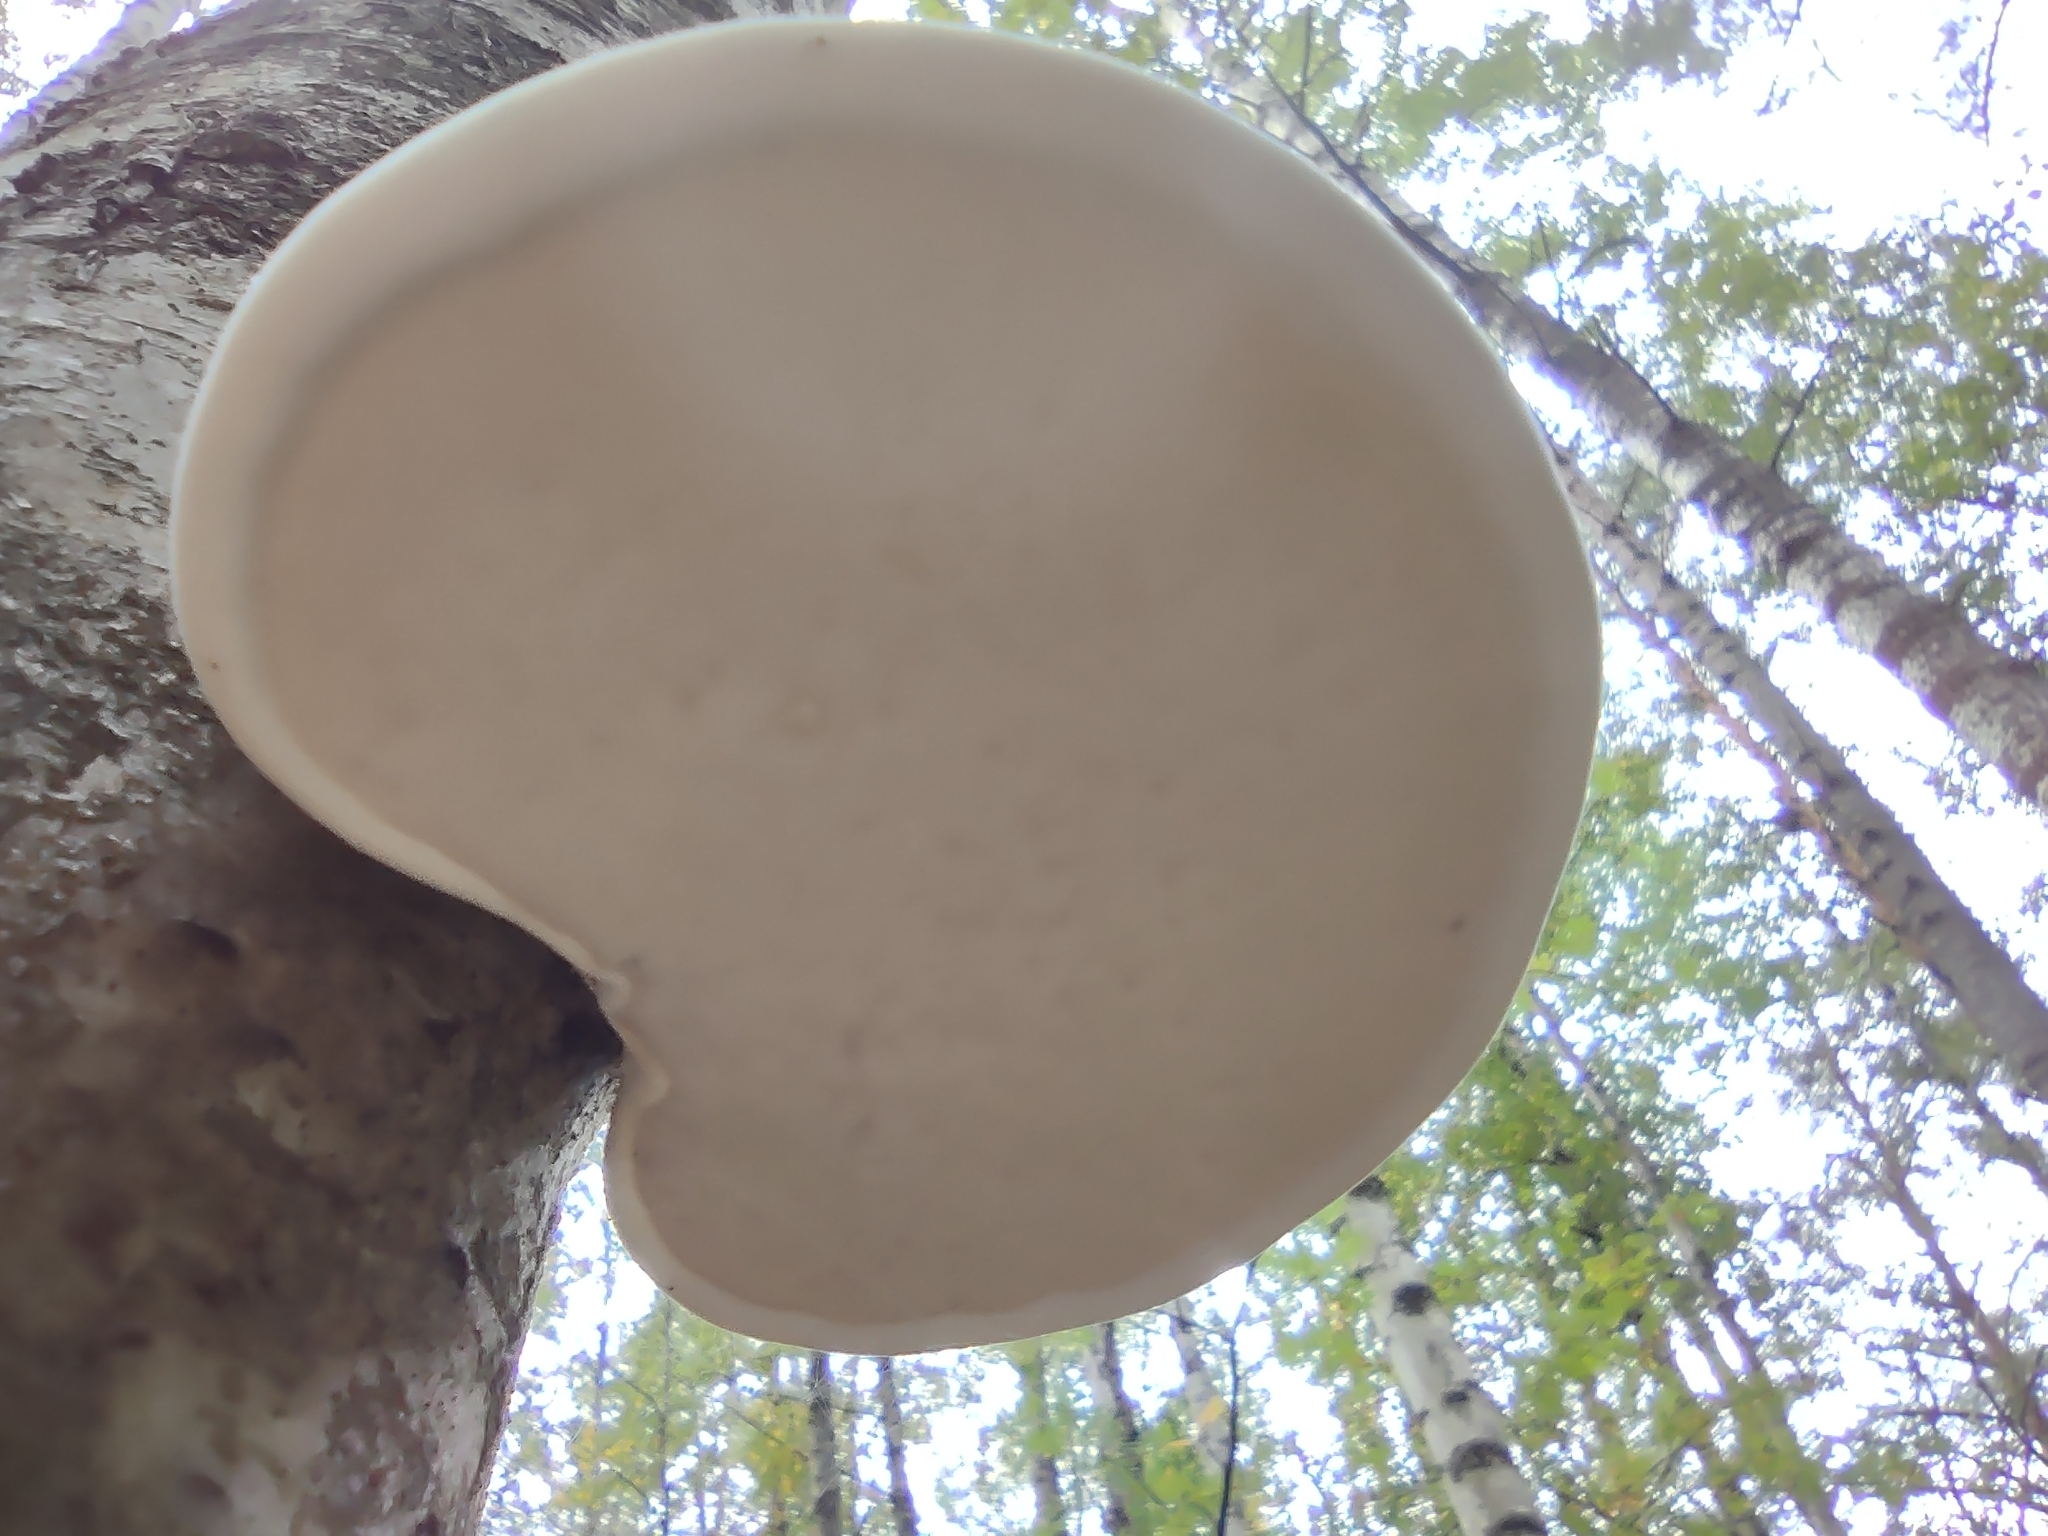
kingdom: Fungi
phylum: Basidiomycota
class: Agaricomycetes
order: Polyporales
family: Fomitopsidaceae
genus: Fomitopsis
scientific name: Fomitopsis betulina
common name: Birch polypore
